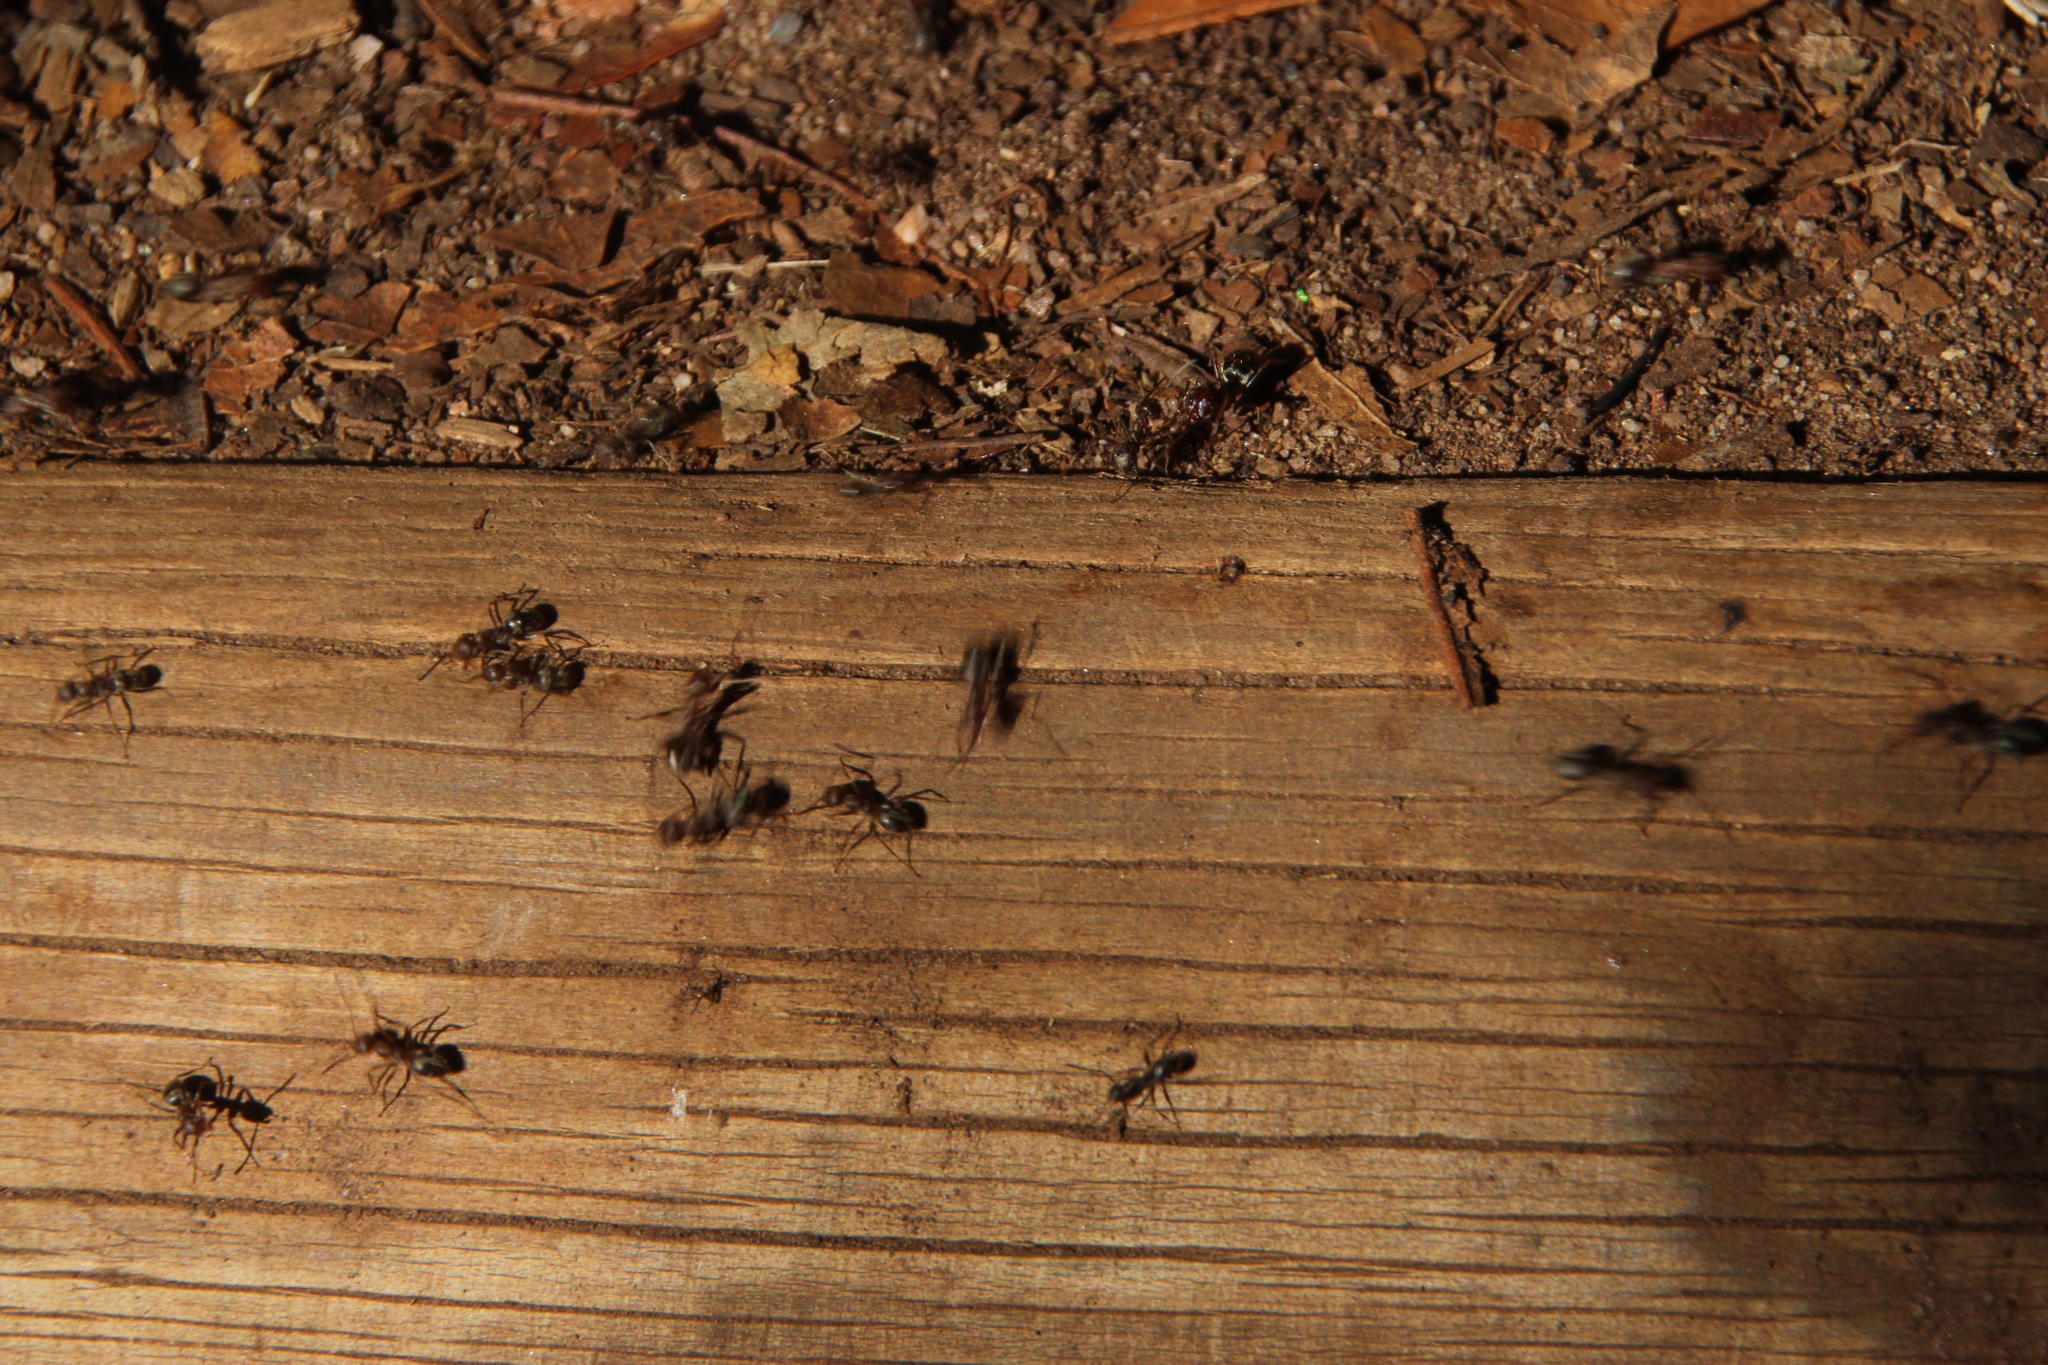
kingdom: Animalia
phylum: Arthropoda
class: Insecta
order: Hymenoptera
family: Formicidae
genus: Anoplolepis
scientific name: Anoplolepis steingroeveri
